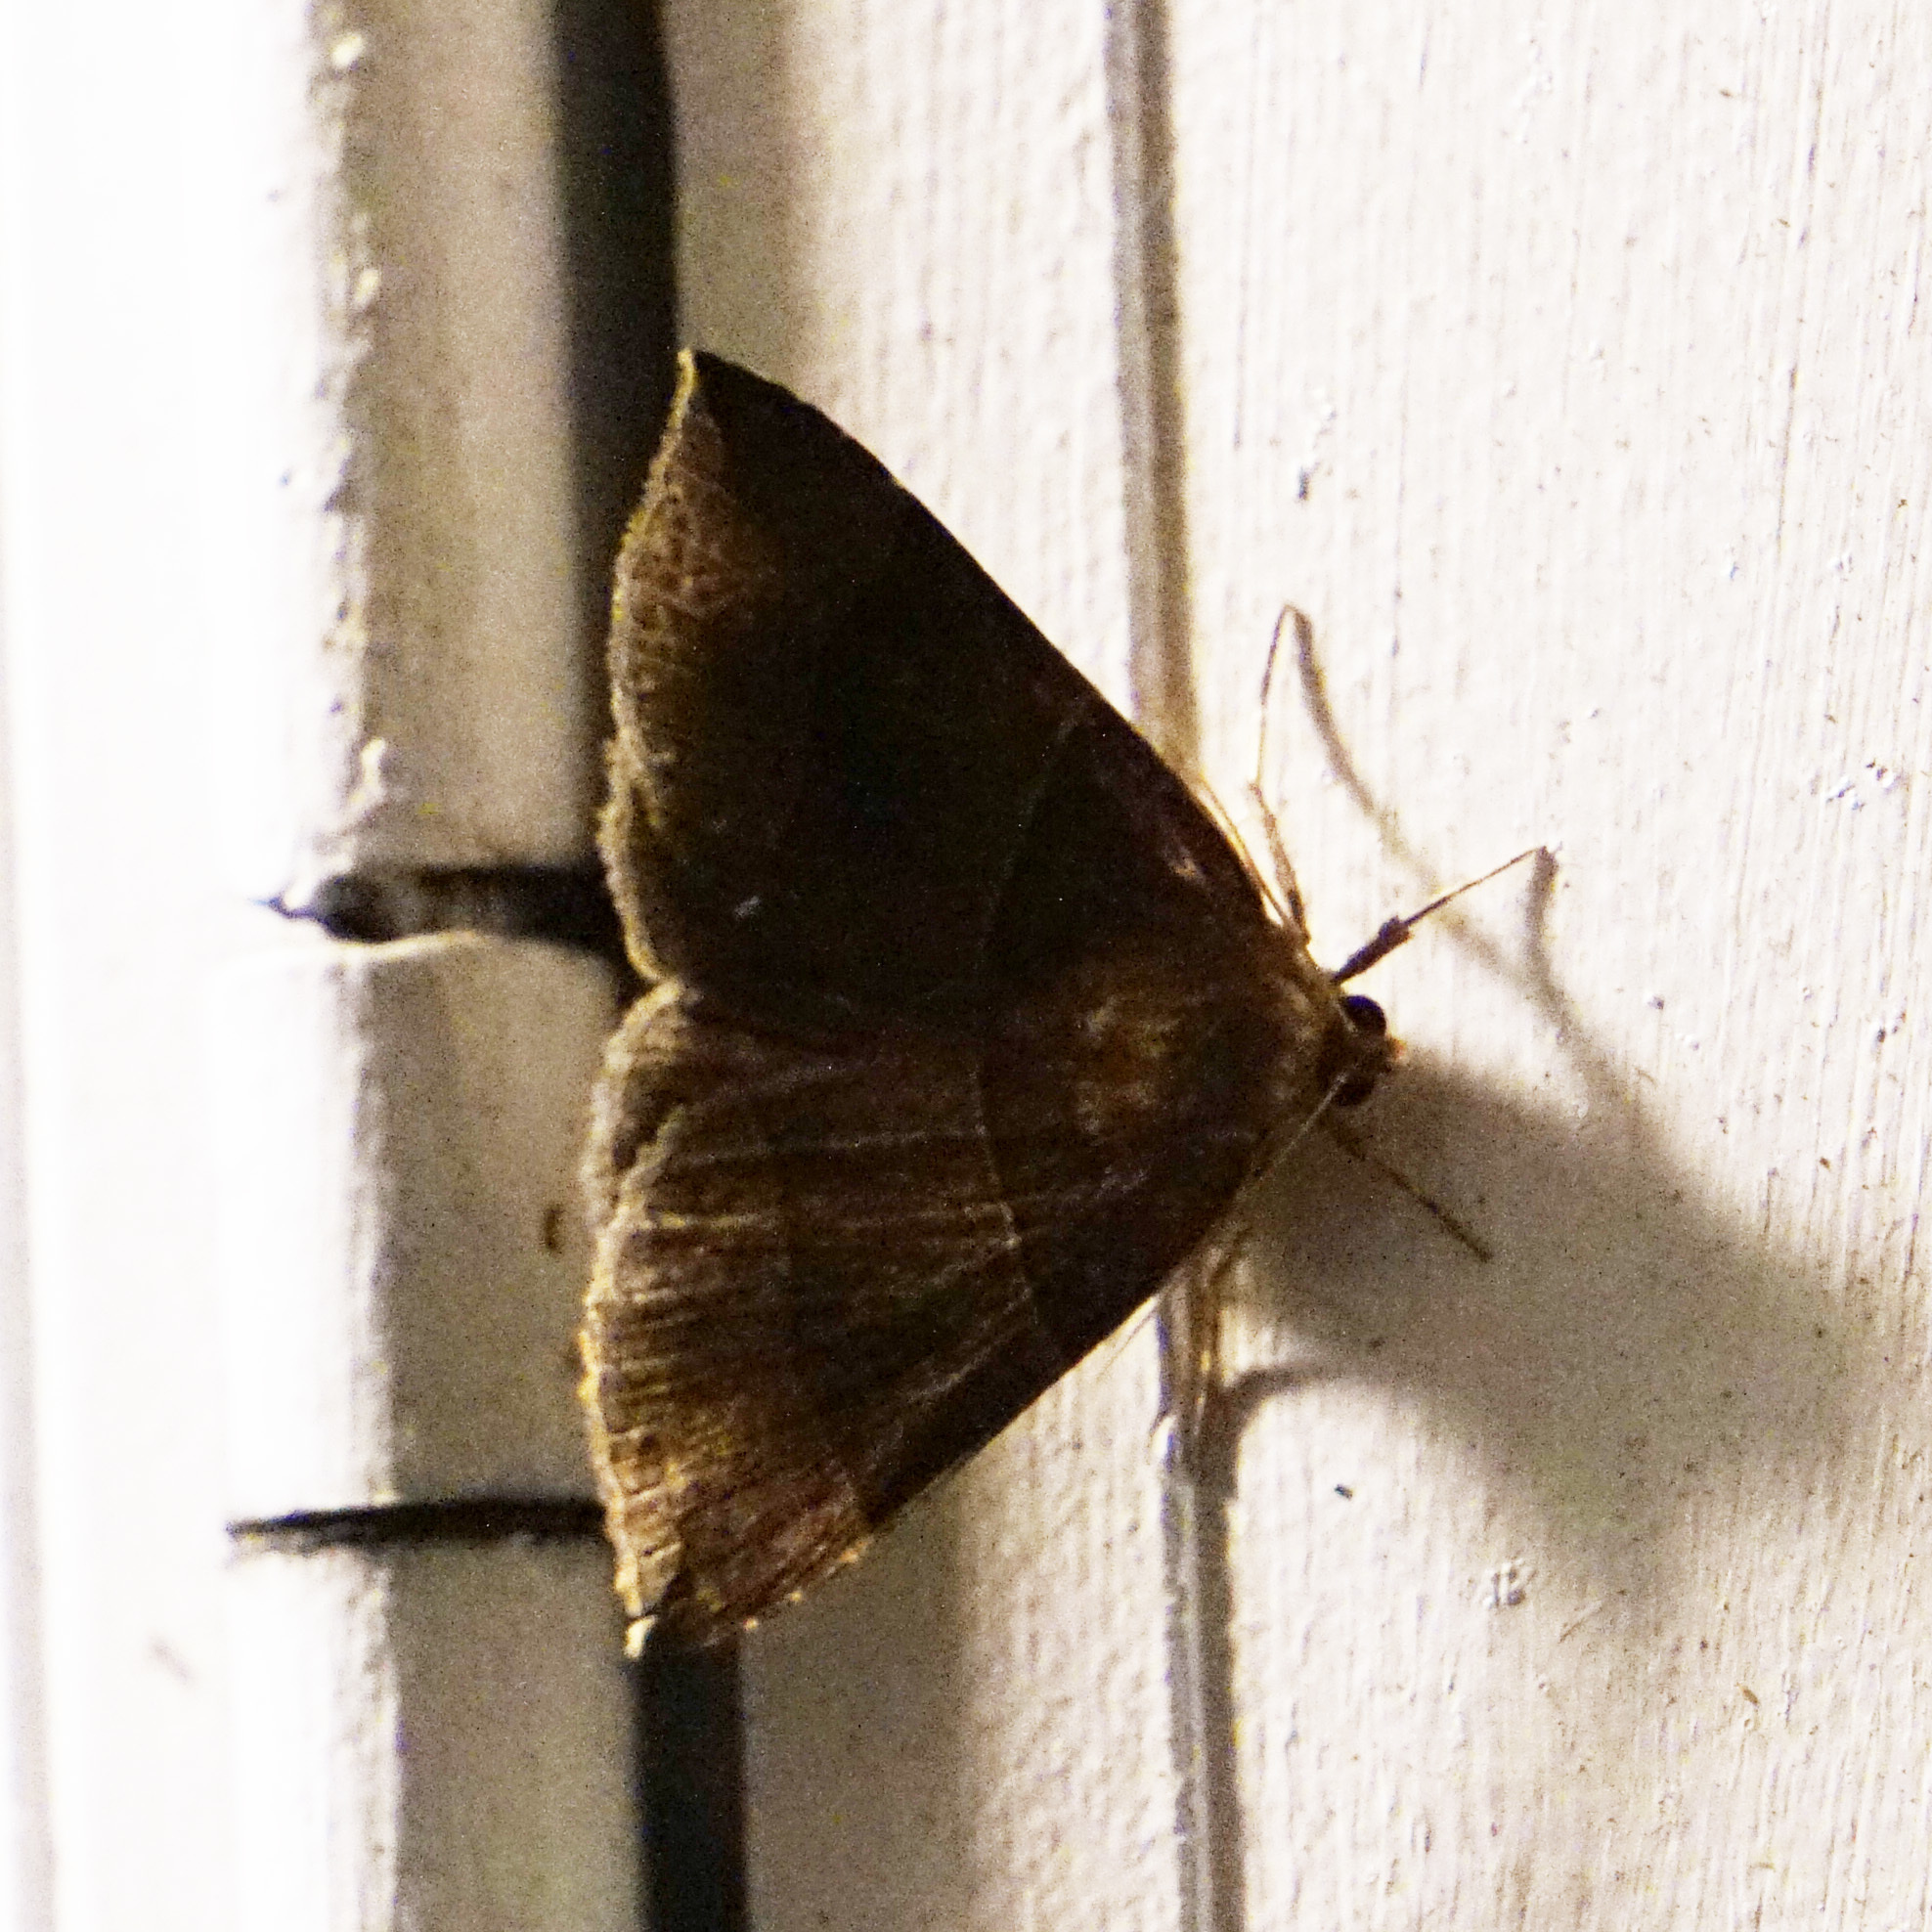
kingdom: Animalia
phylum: Arthropoda
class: Insecta
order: Lepidoptera
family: Erebidae
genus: Parallelia
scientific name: Parallelia bistriaris
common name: Maple looper moth
